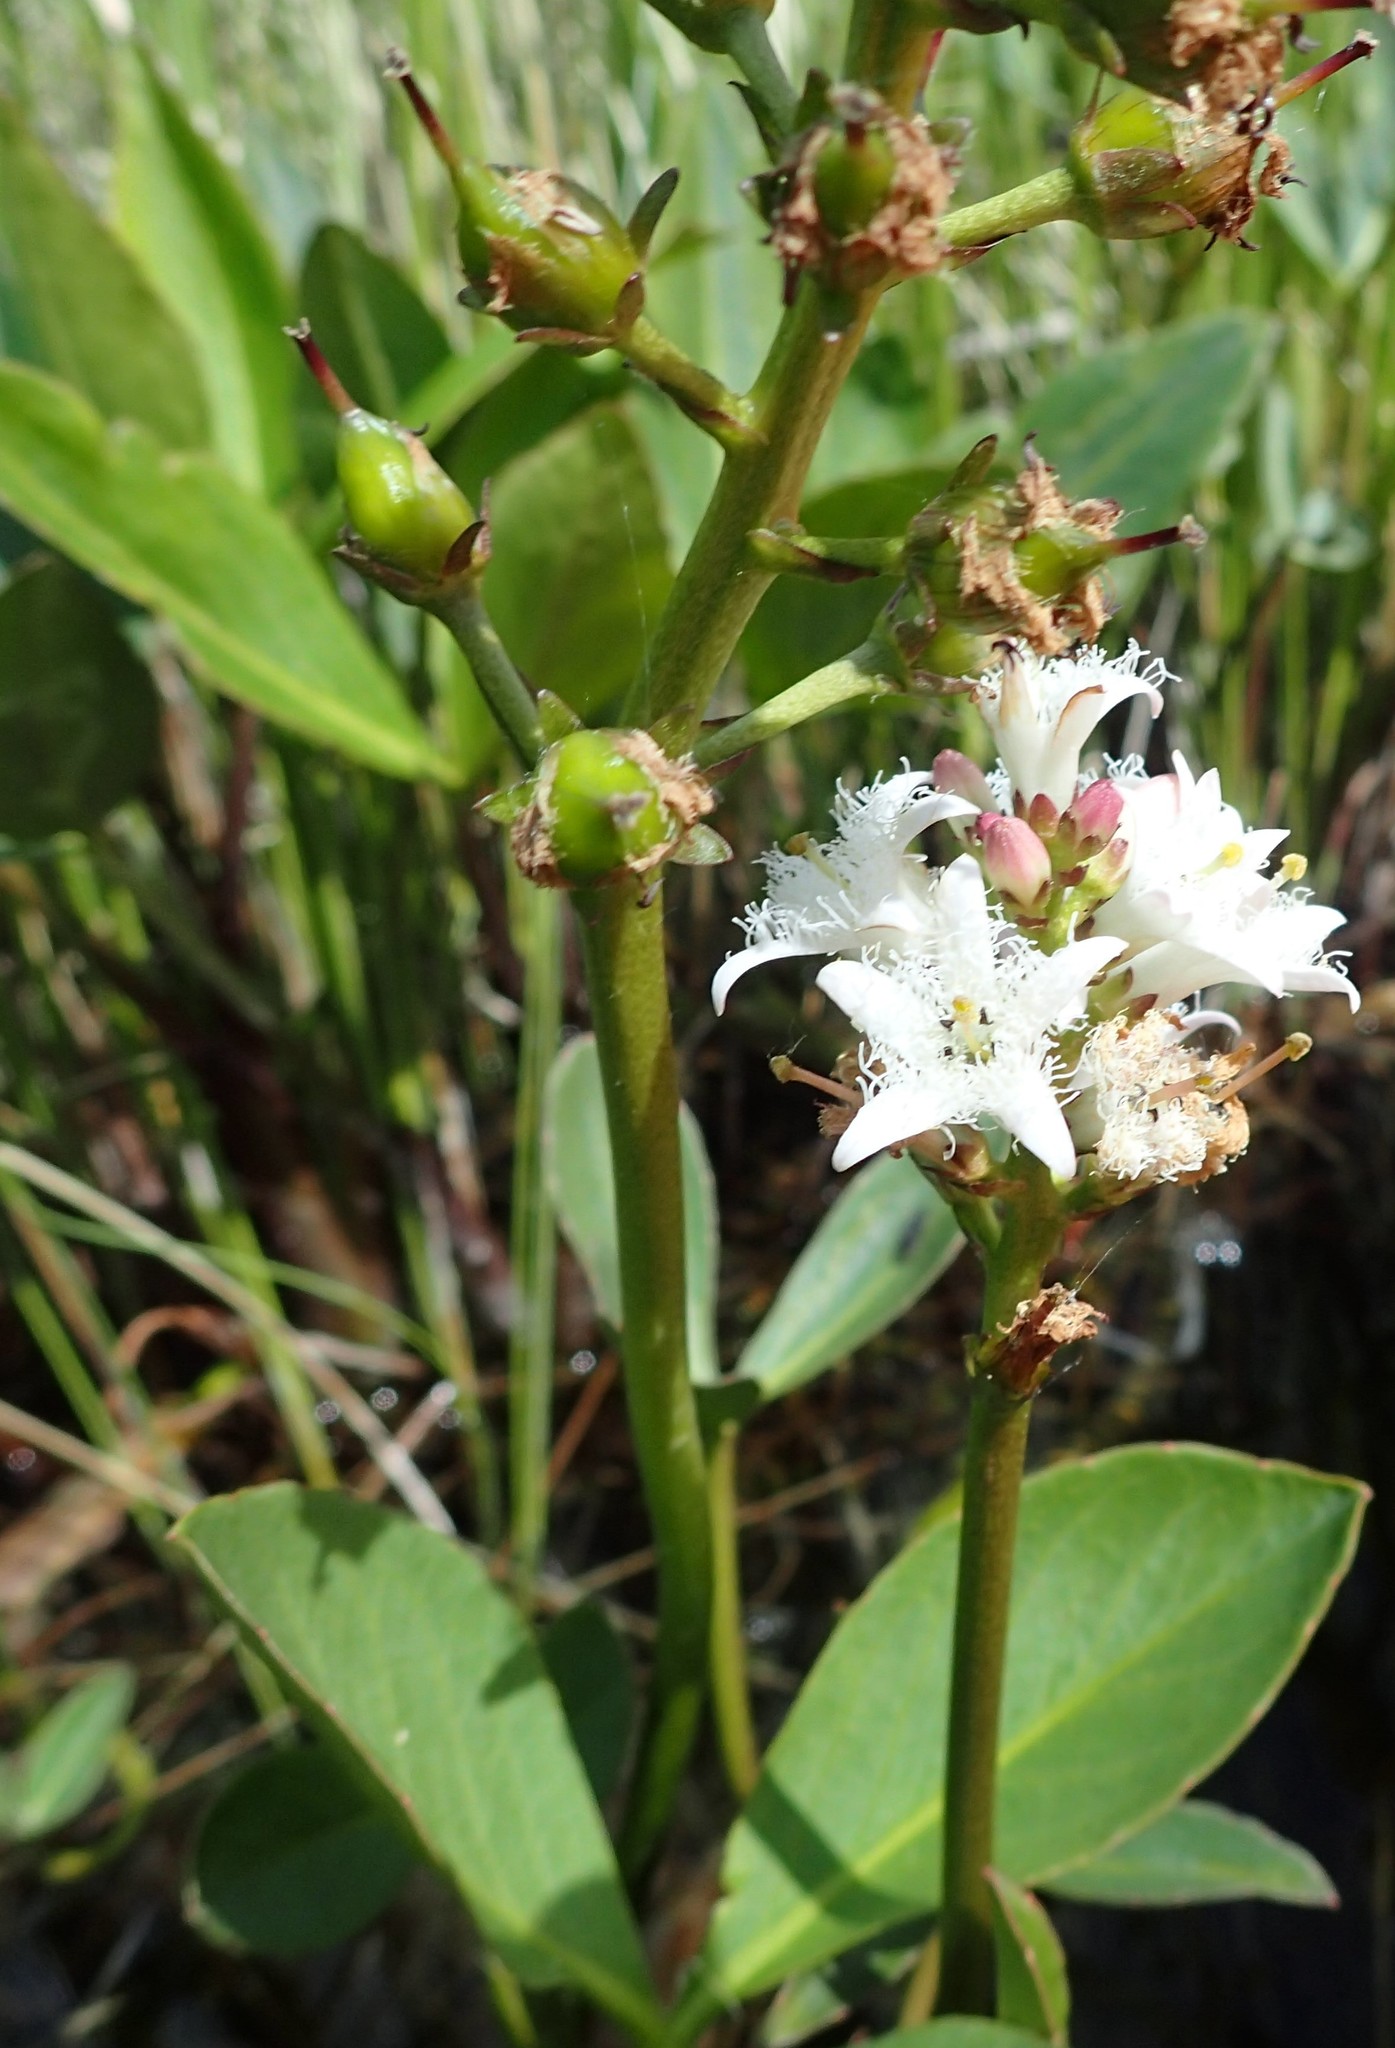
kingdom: Plantae
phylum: Tracheophyta
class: Magnoliopsida
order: Asterales
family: Menyanthaceae
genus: Menyanthes
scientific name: Menyanthes trifoliata
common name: Bogbean
